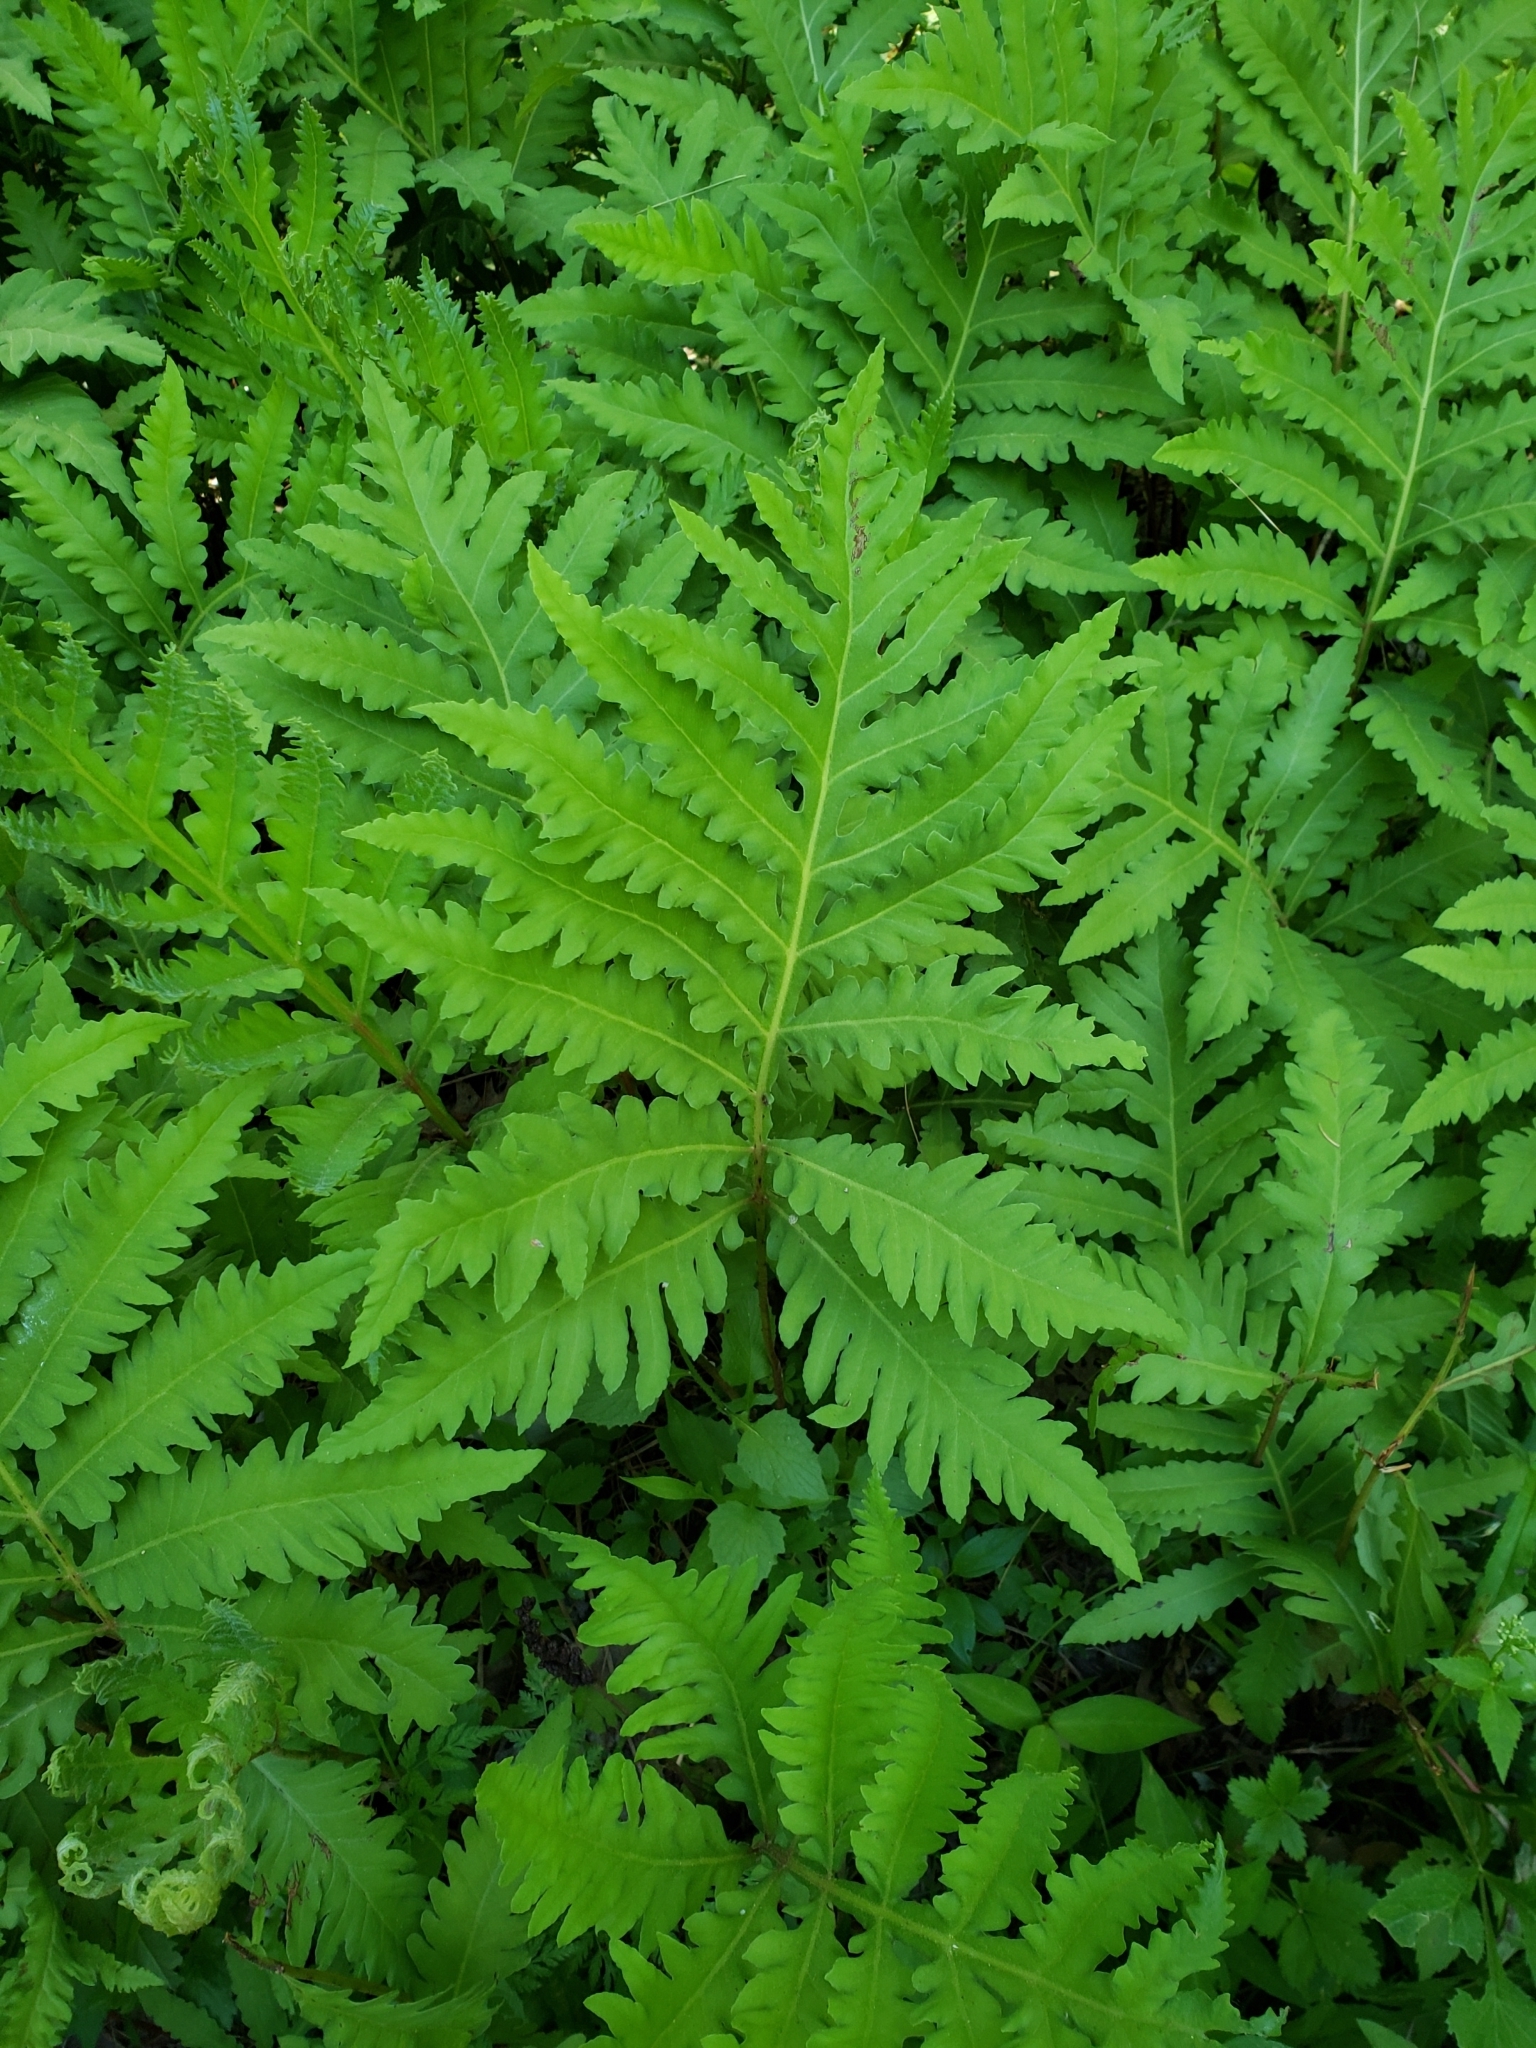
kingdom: Plantae
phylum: Tracheophyta
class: Polypodiopsida
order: Polypodiales
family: Onocleaceae
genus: Onoclea
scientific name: Onoclea sensibilis
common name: Sensitive fern
